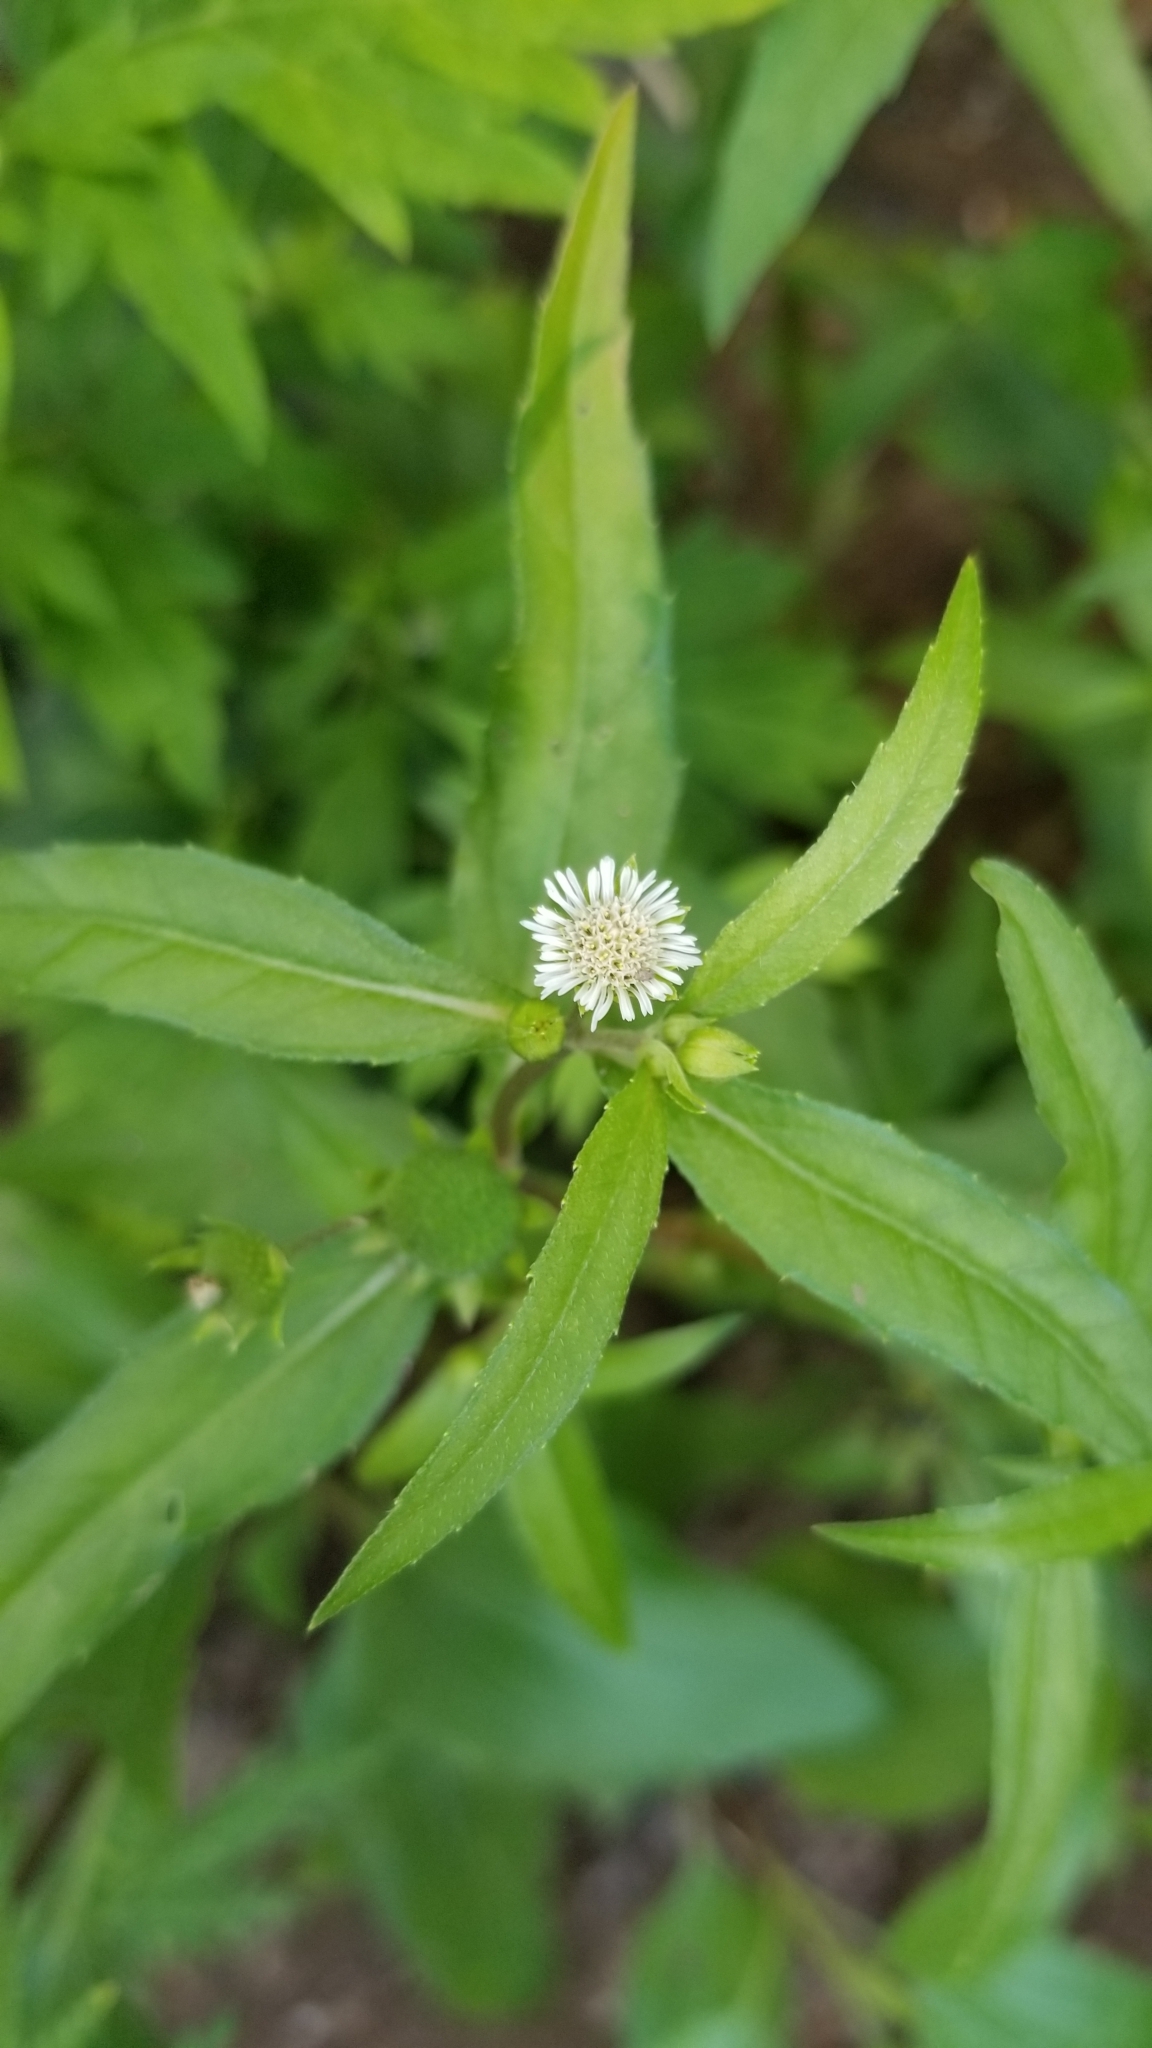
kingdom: Plantae
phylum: Tracheophyta
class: Magnoliopsida
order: Asterales
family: Asteraceae
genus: Eclipta
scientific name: Eclipta prostrata
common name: False daisy
